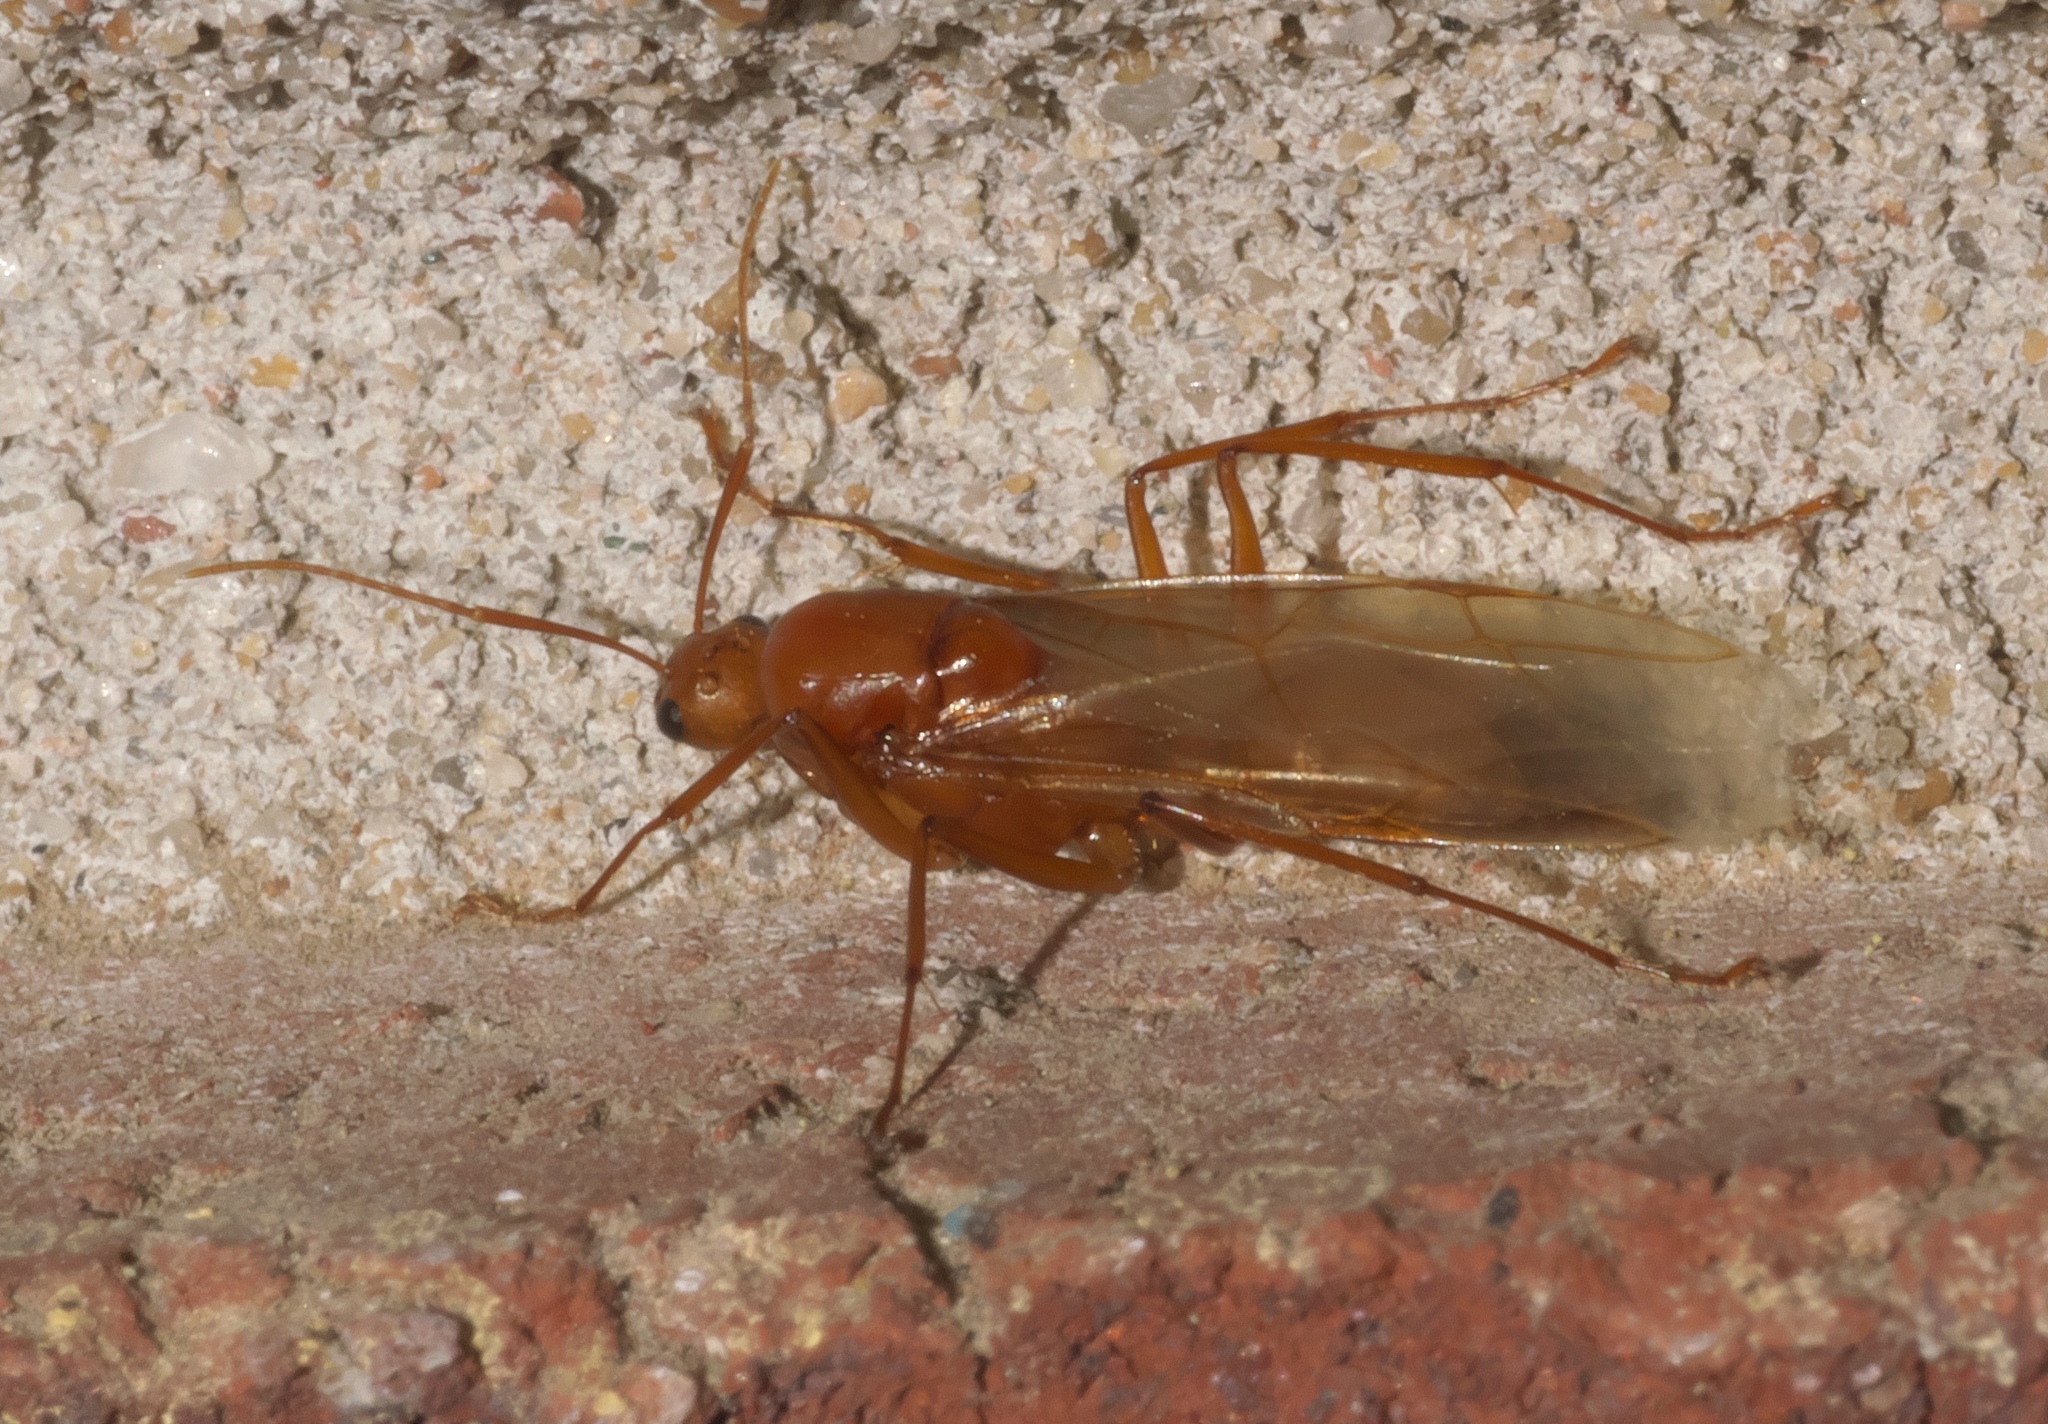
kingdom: Animalia
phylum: Arthropoda
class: Insecta
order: Hymenoptera
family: Formicidae
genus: Camponotus
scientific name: Camponotus castaneus
